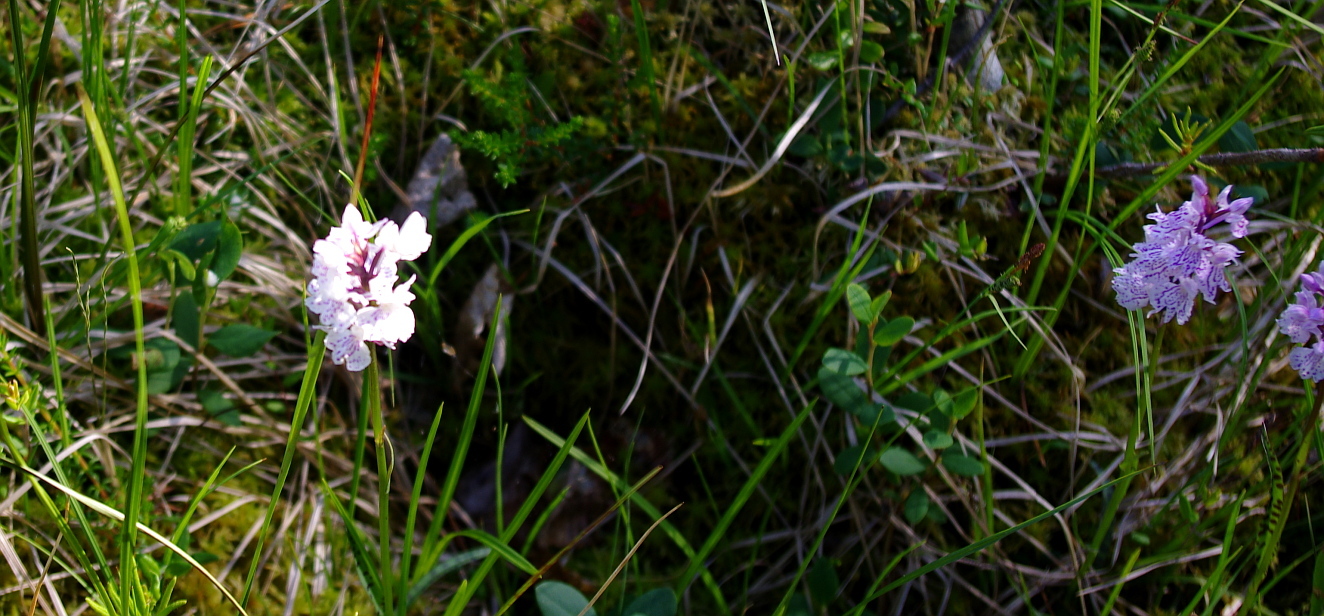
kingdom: Plantae
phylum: Tracheophyta
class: Liliopsida
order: Asparagales
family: Orchidaceae
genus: Dactylorhiza
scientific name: Dactylorhiza maculata
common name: Heath spotted-orchid
